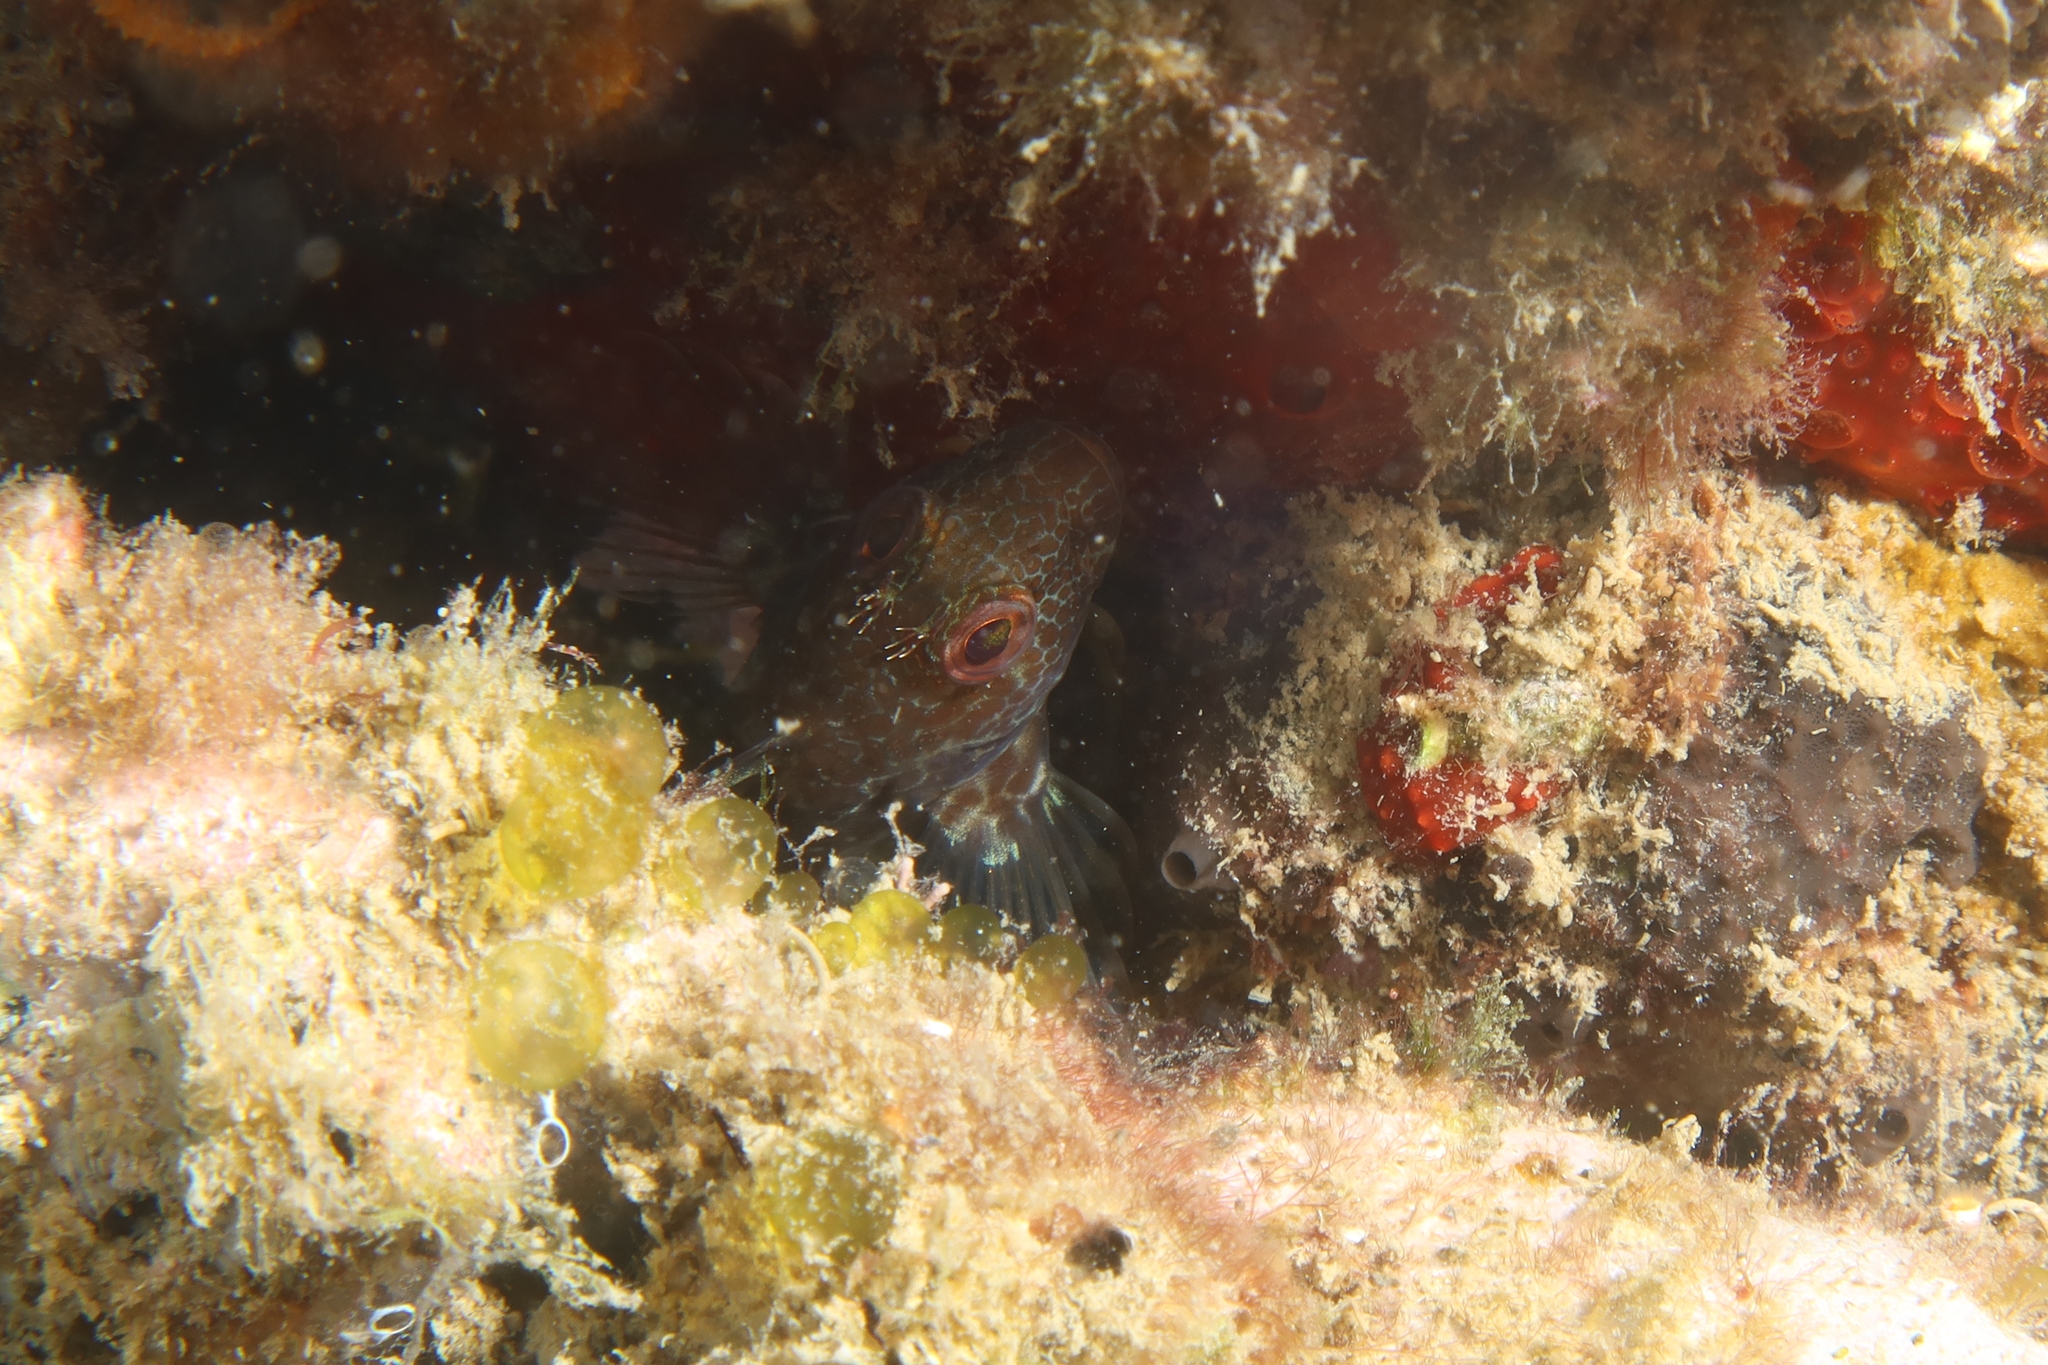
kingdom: Animalia
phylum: Chordata
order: Perciformes
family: Blenniidae
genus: Parablennius
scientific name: Parablennius pilicornis
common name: Ringneck blenny
